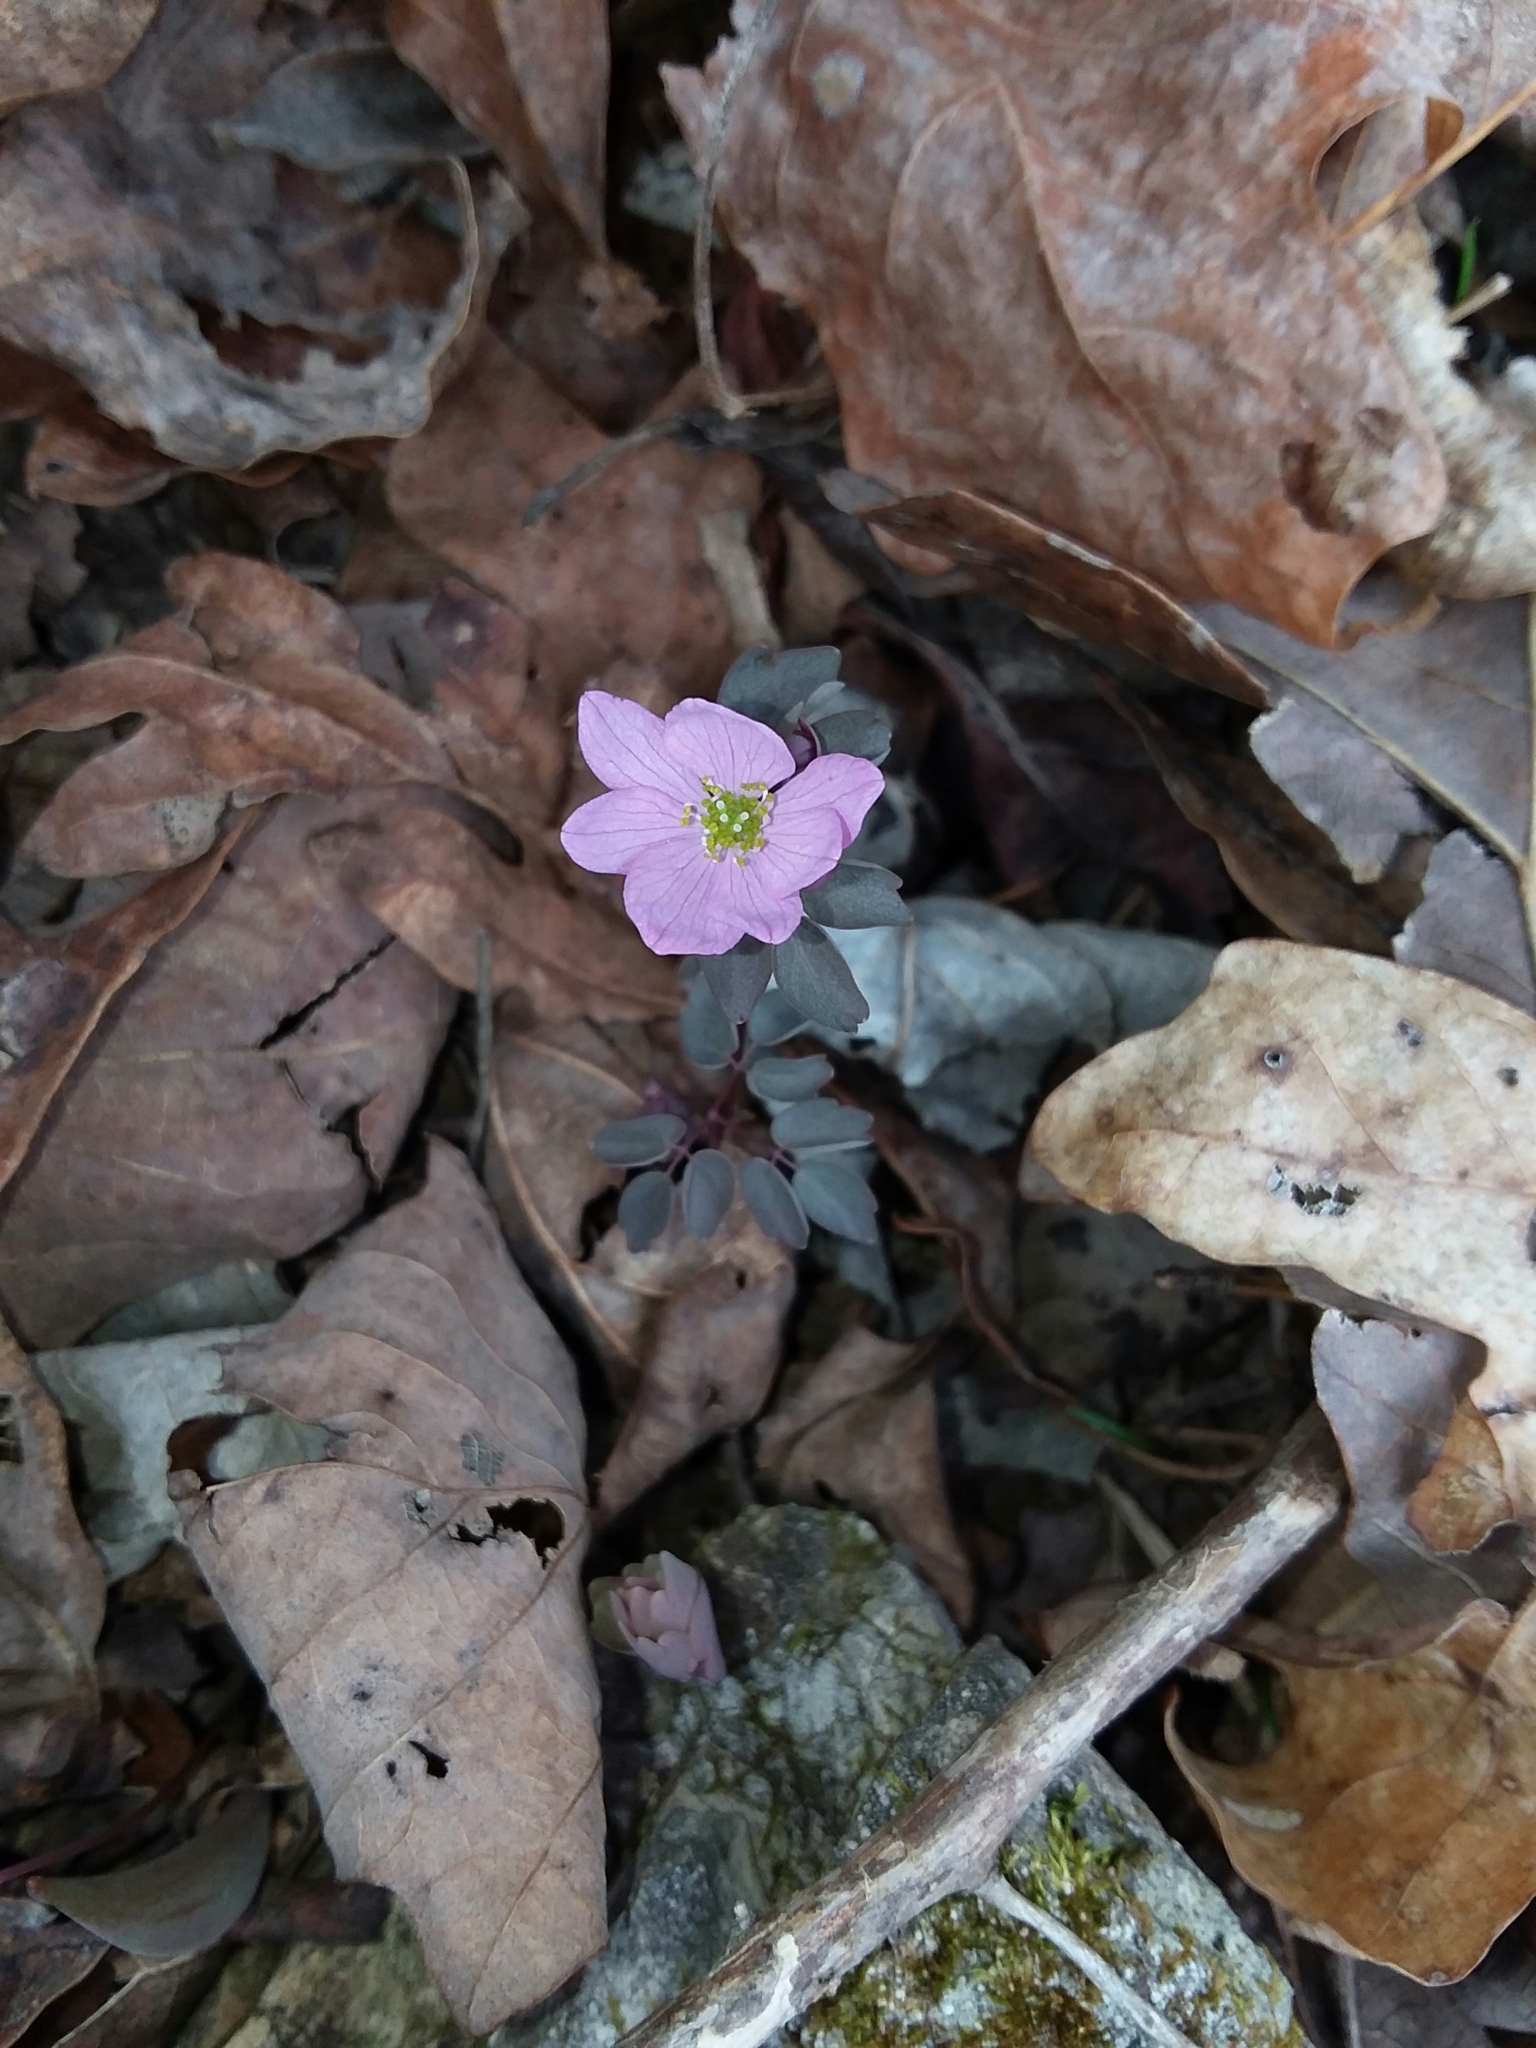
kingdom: Plantae
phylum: Tracheophyta
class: Magnoliopsida
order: Ranunculales
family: Ranunculaceae
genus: Thalictrum
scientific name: Thalictrum thalictroides
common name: Rue-anemone
